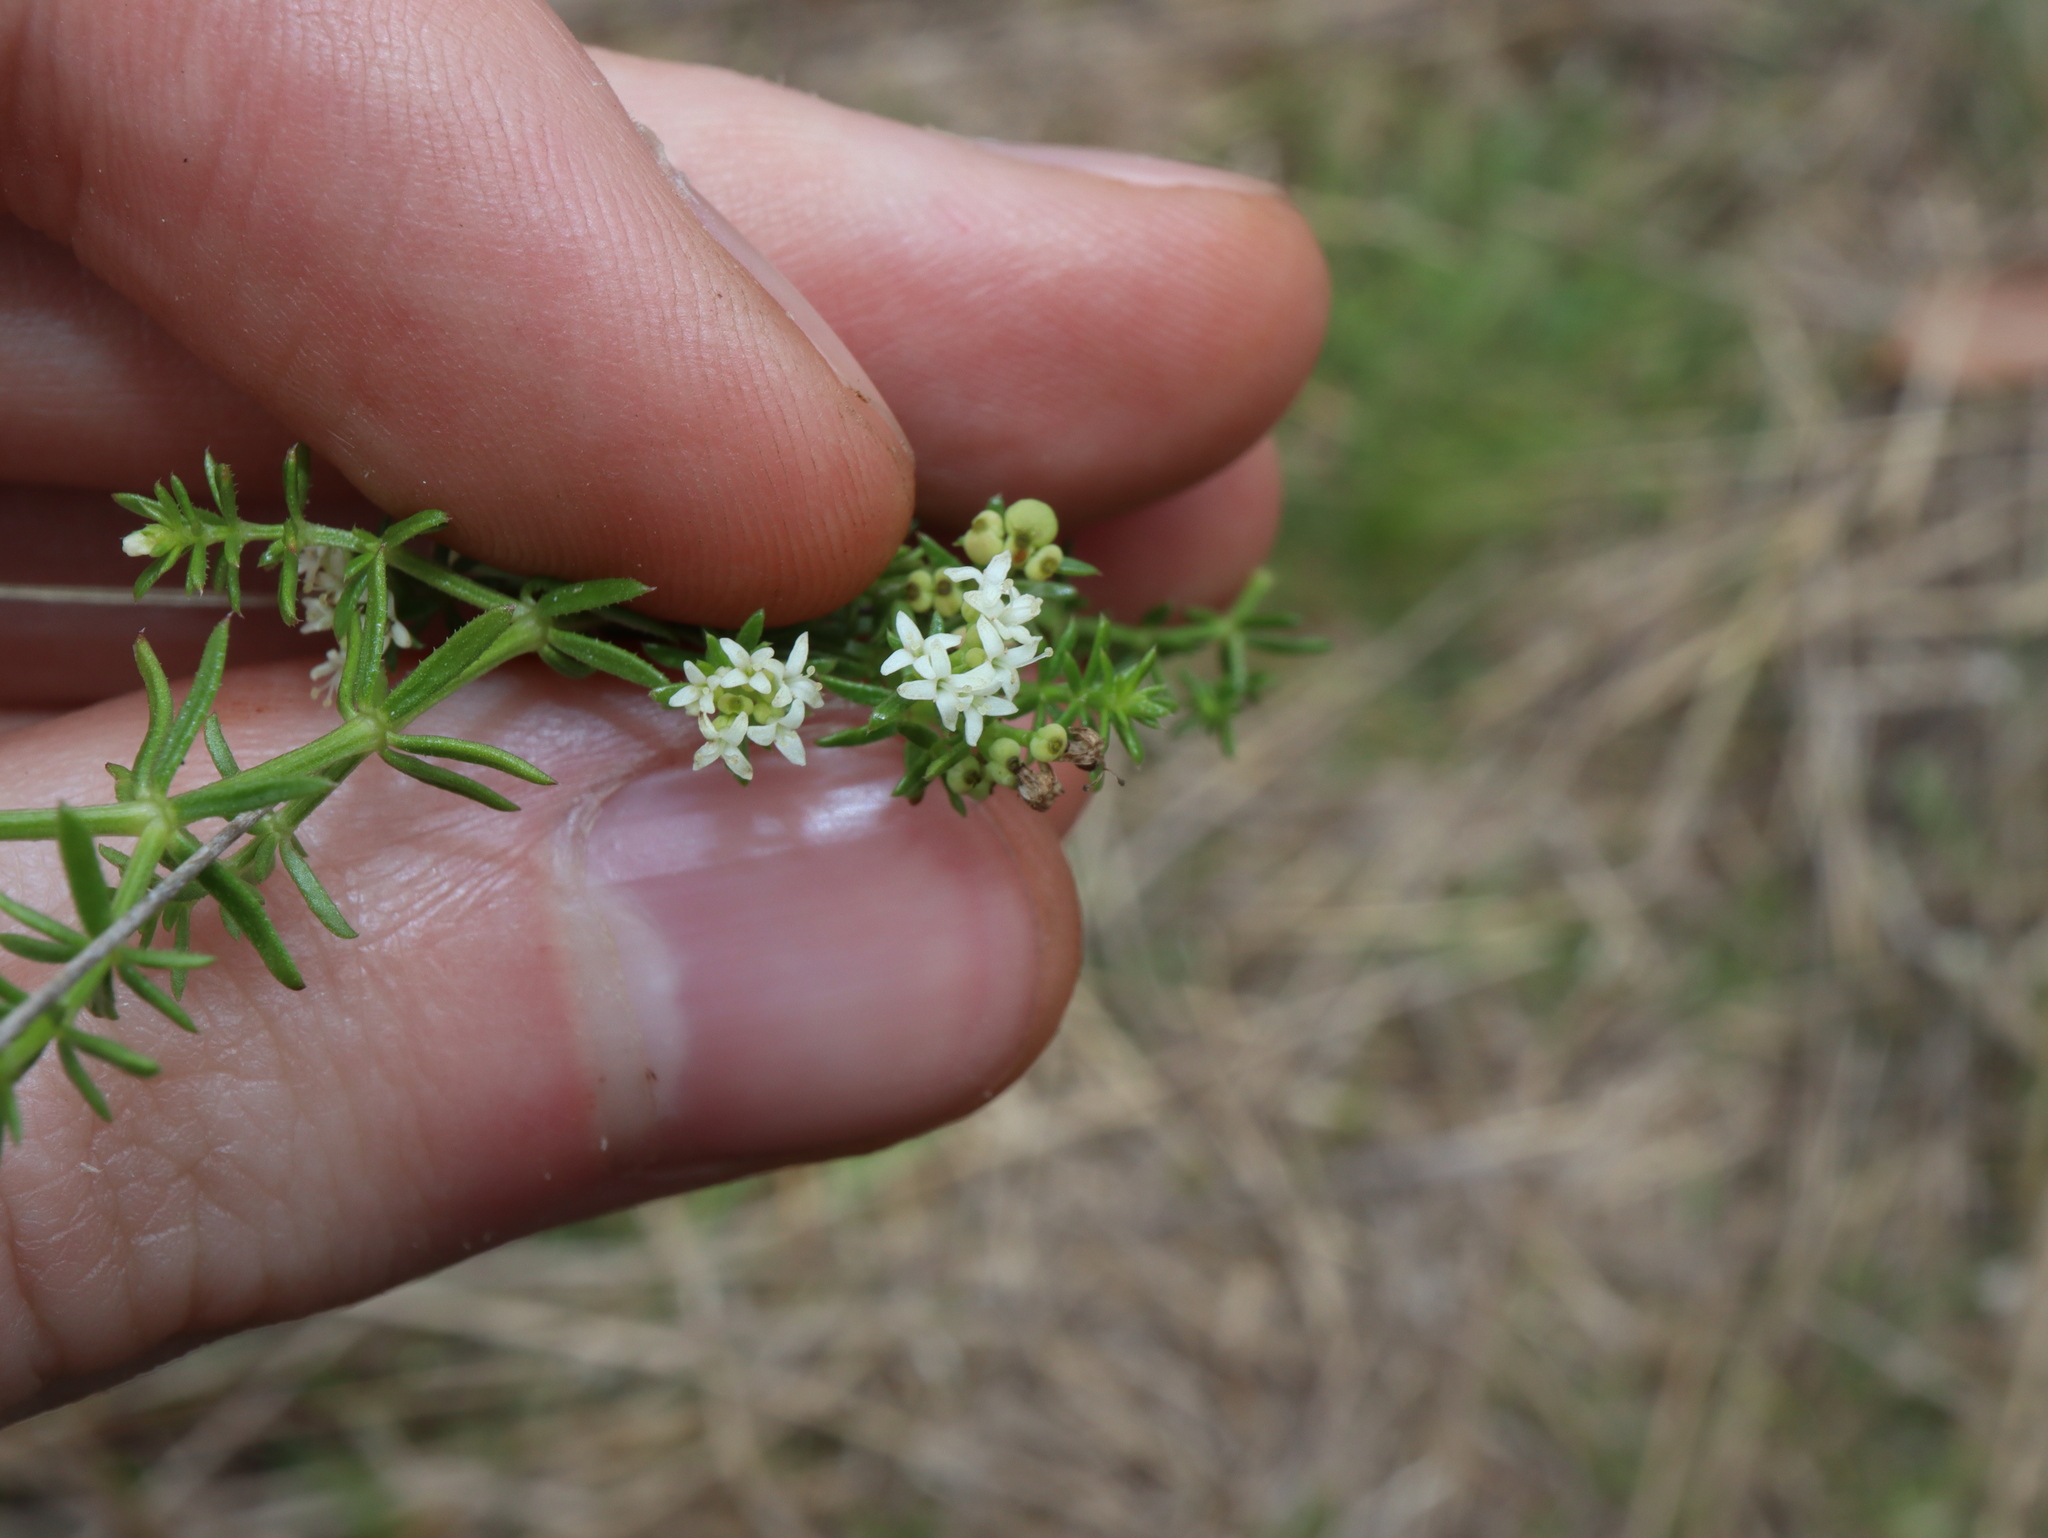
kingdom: Plantae
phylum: Tracheophyta
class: Magnoliopsida
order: Gentianales
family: Rubiaceae
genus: Asperula
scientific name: Asperula conferta
